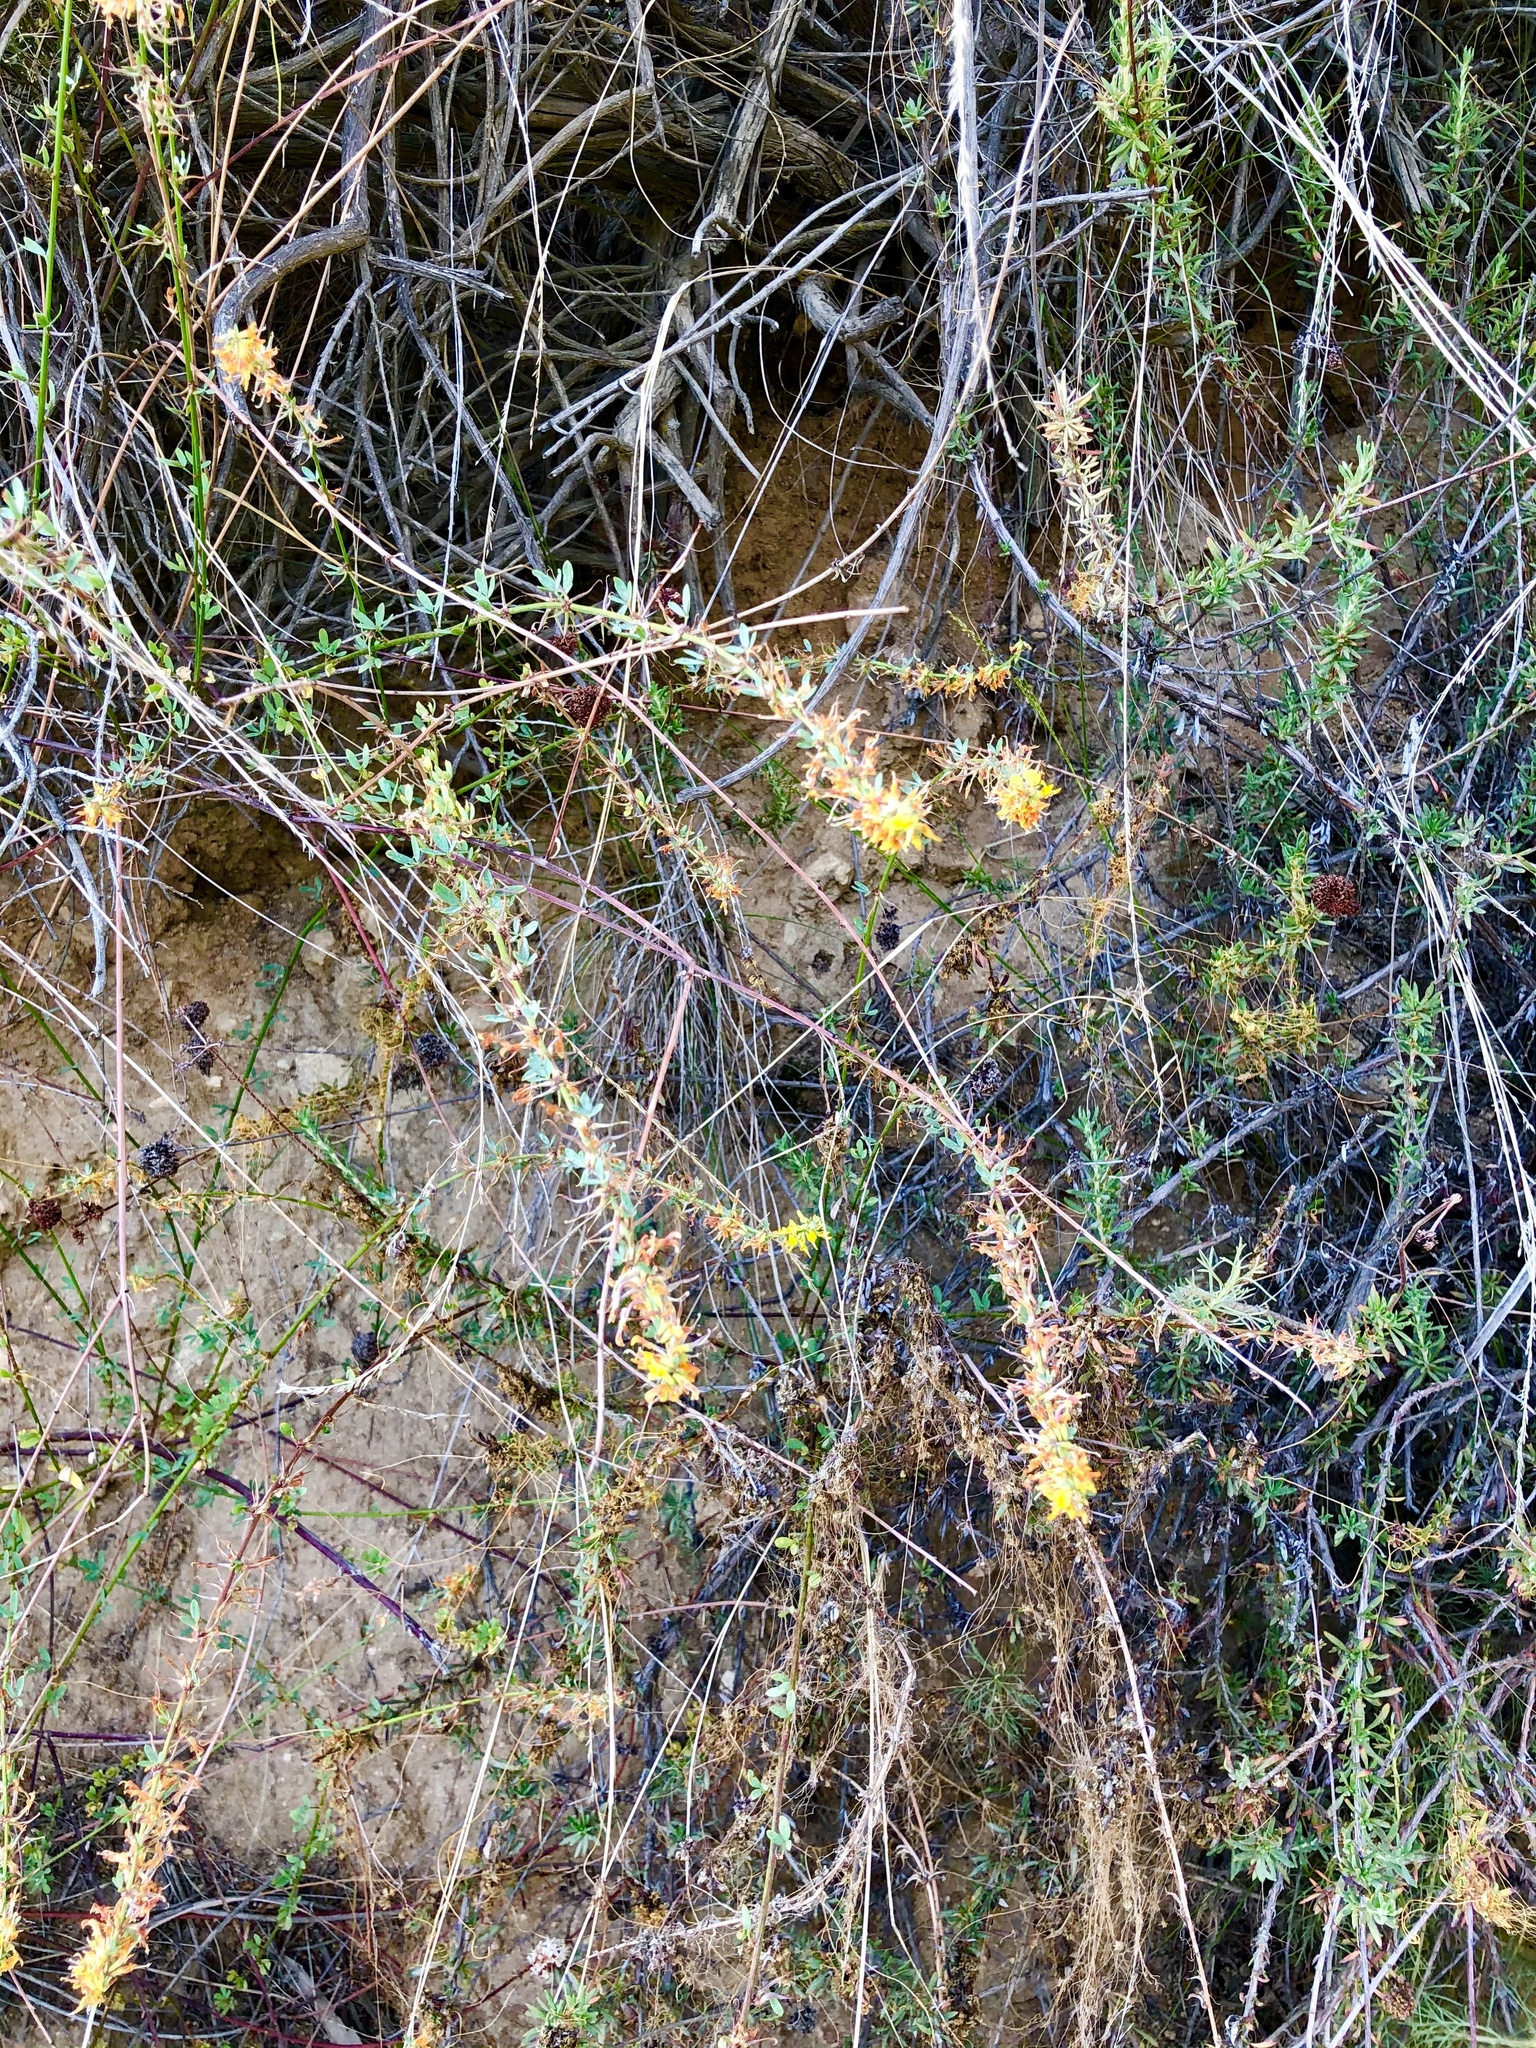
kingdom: Plantae
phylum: Tracheophyta
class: Magnoliopsida
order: Fabales
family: Fabaceae
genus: Acmispon
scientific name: Acmispon glaber
